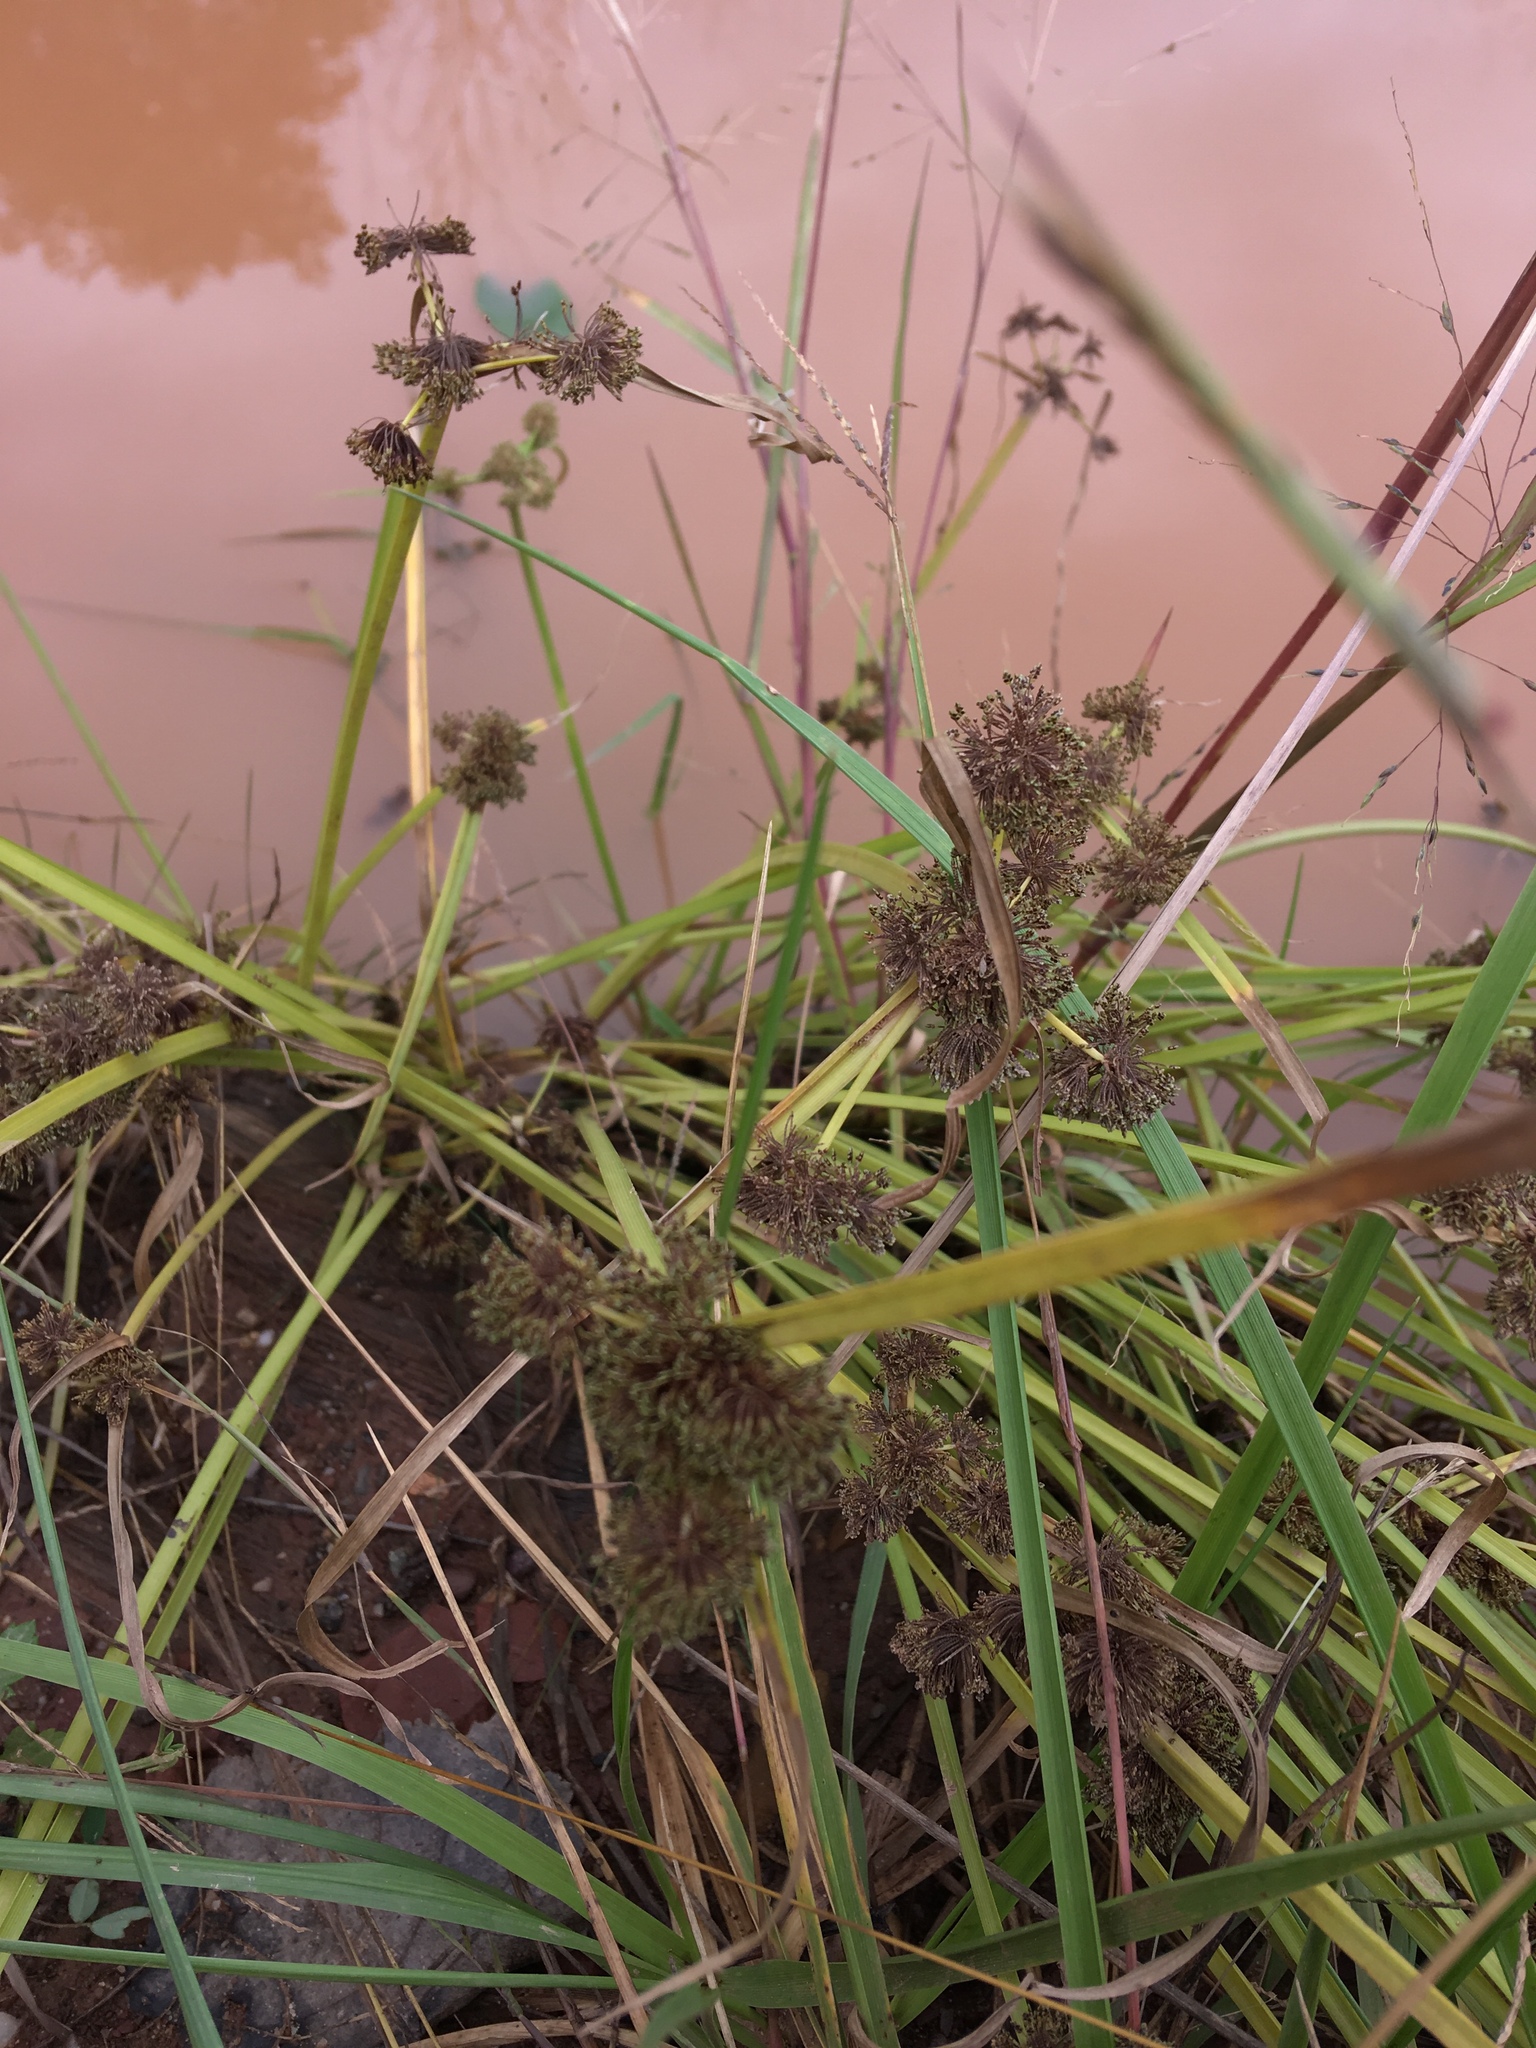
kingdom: Plantae
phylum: Tracheophyta
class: Liliopsida
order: Poales
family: Cyperaceae
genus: Cyperus
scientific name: Cyperus difformis
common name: Variable flatsedge
